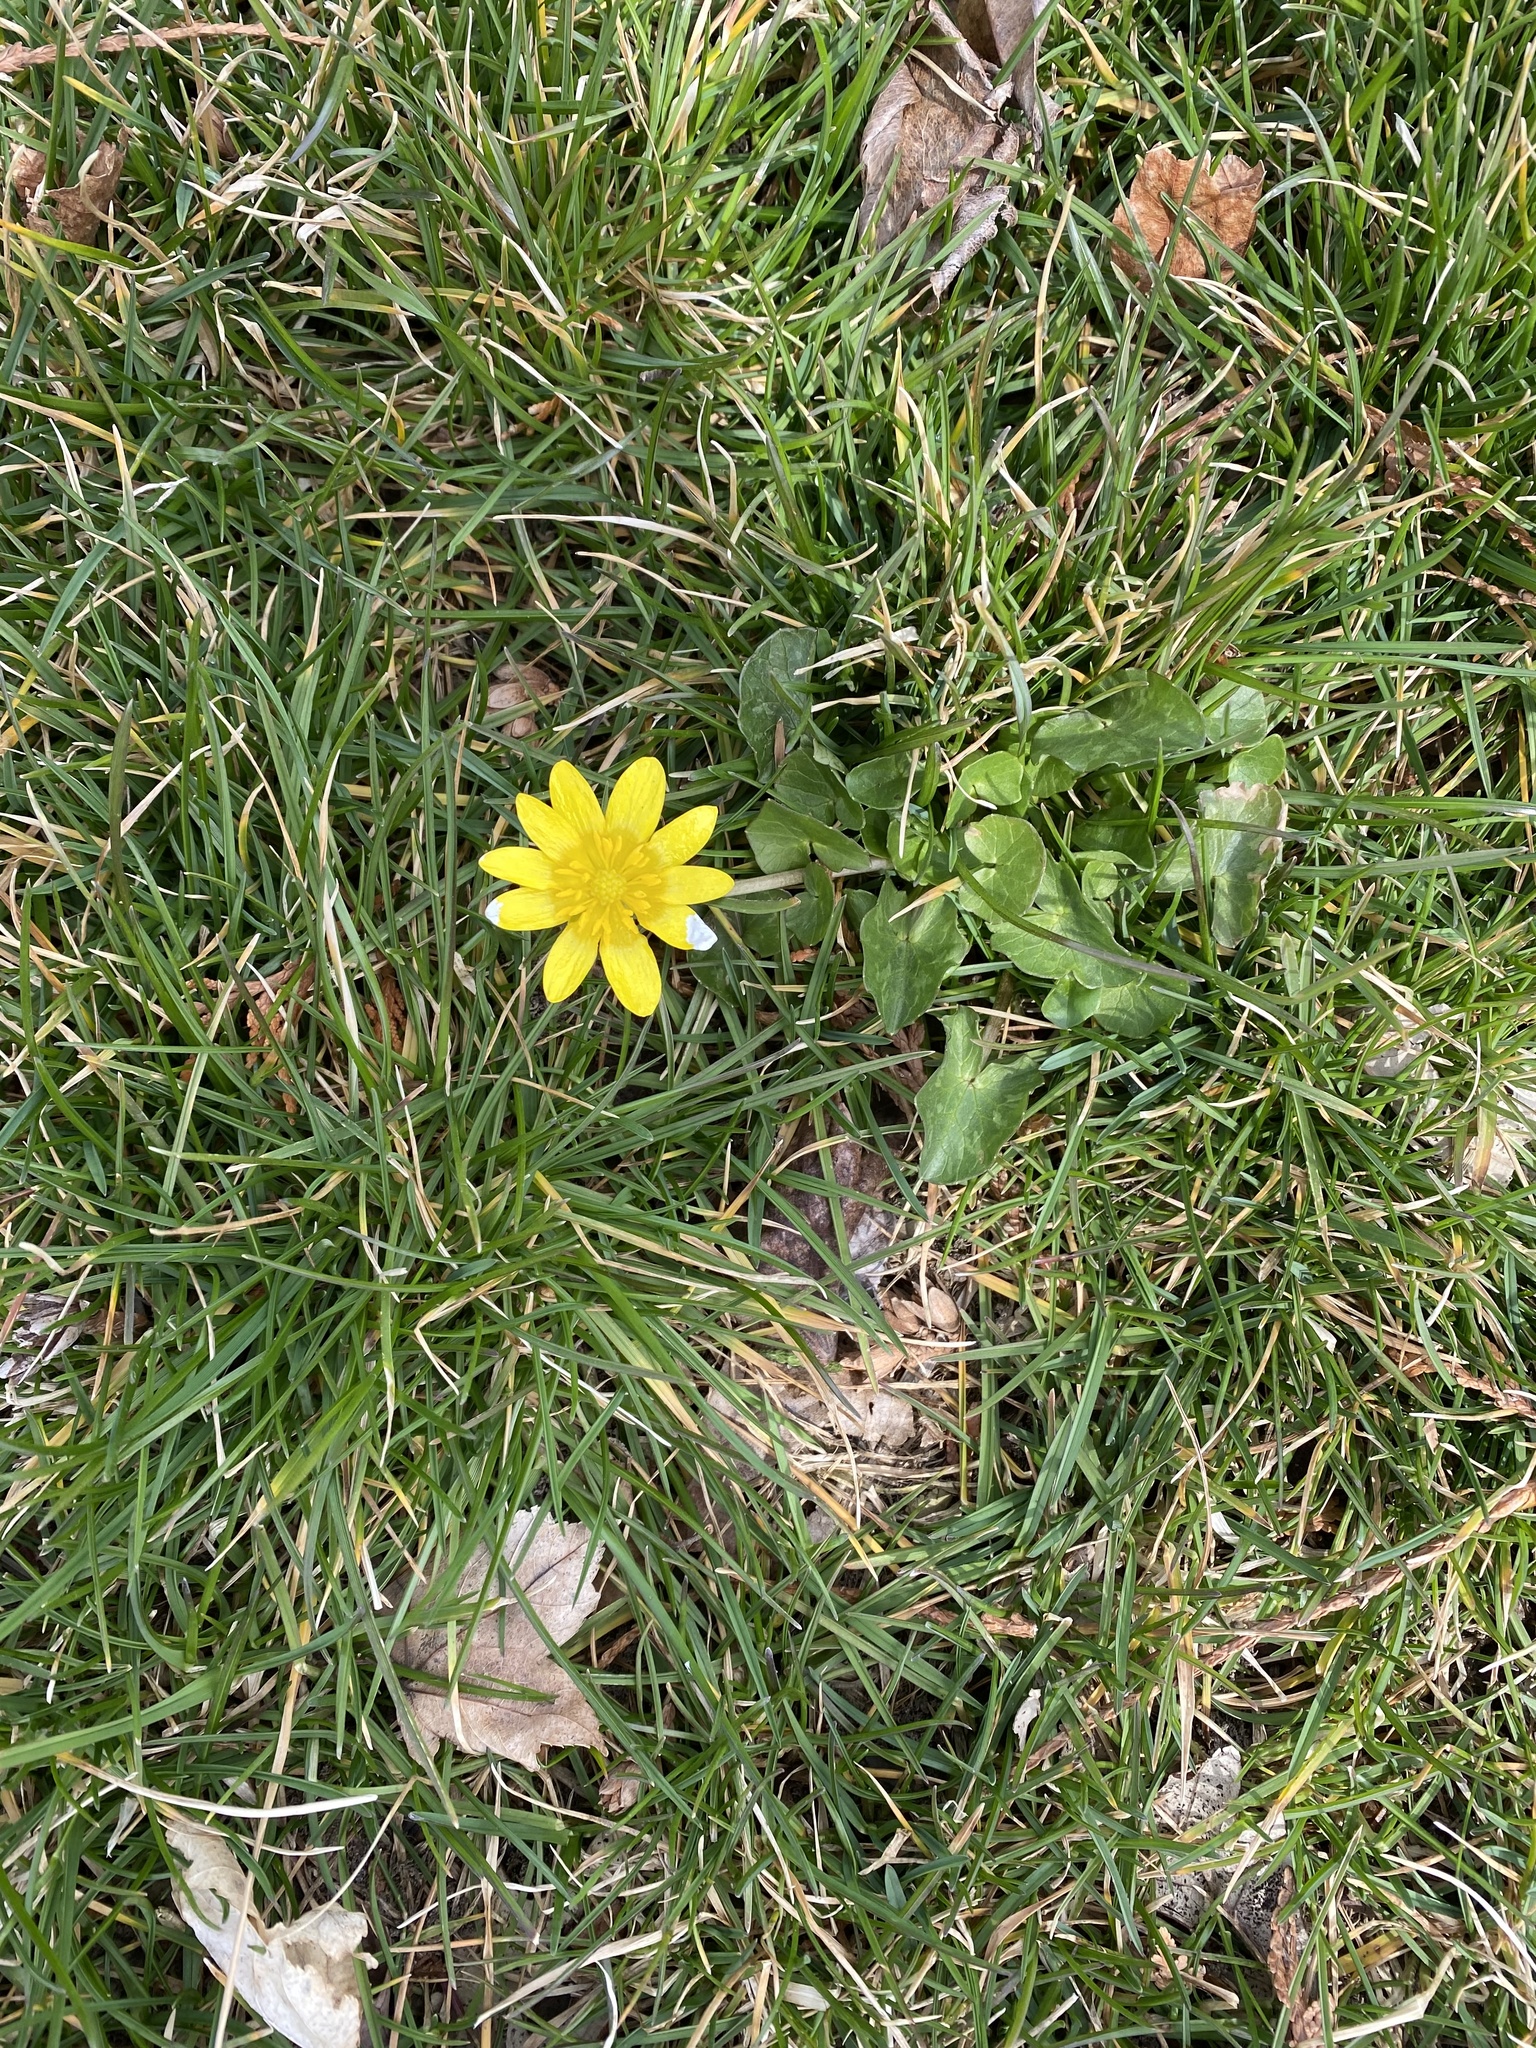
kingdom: Plantae
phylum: Tracheophyta
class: Magnoliopsida
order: Ranunculales
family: Ranunculaceae
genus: Ficaria
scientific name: Ficaria verna
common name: Lesser celandine
